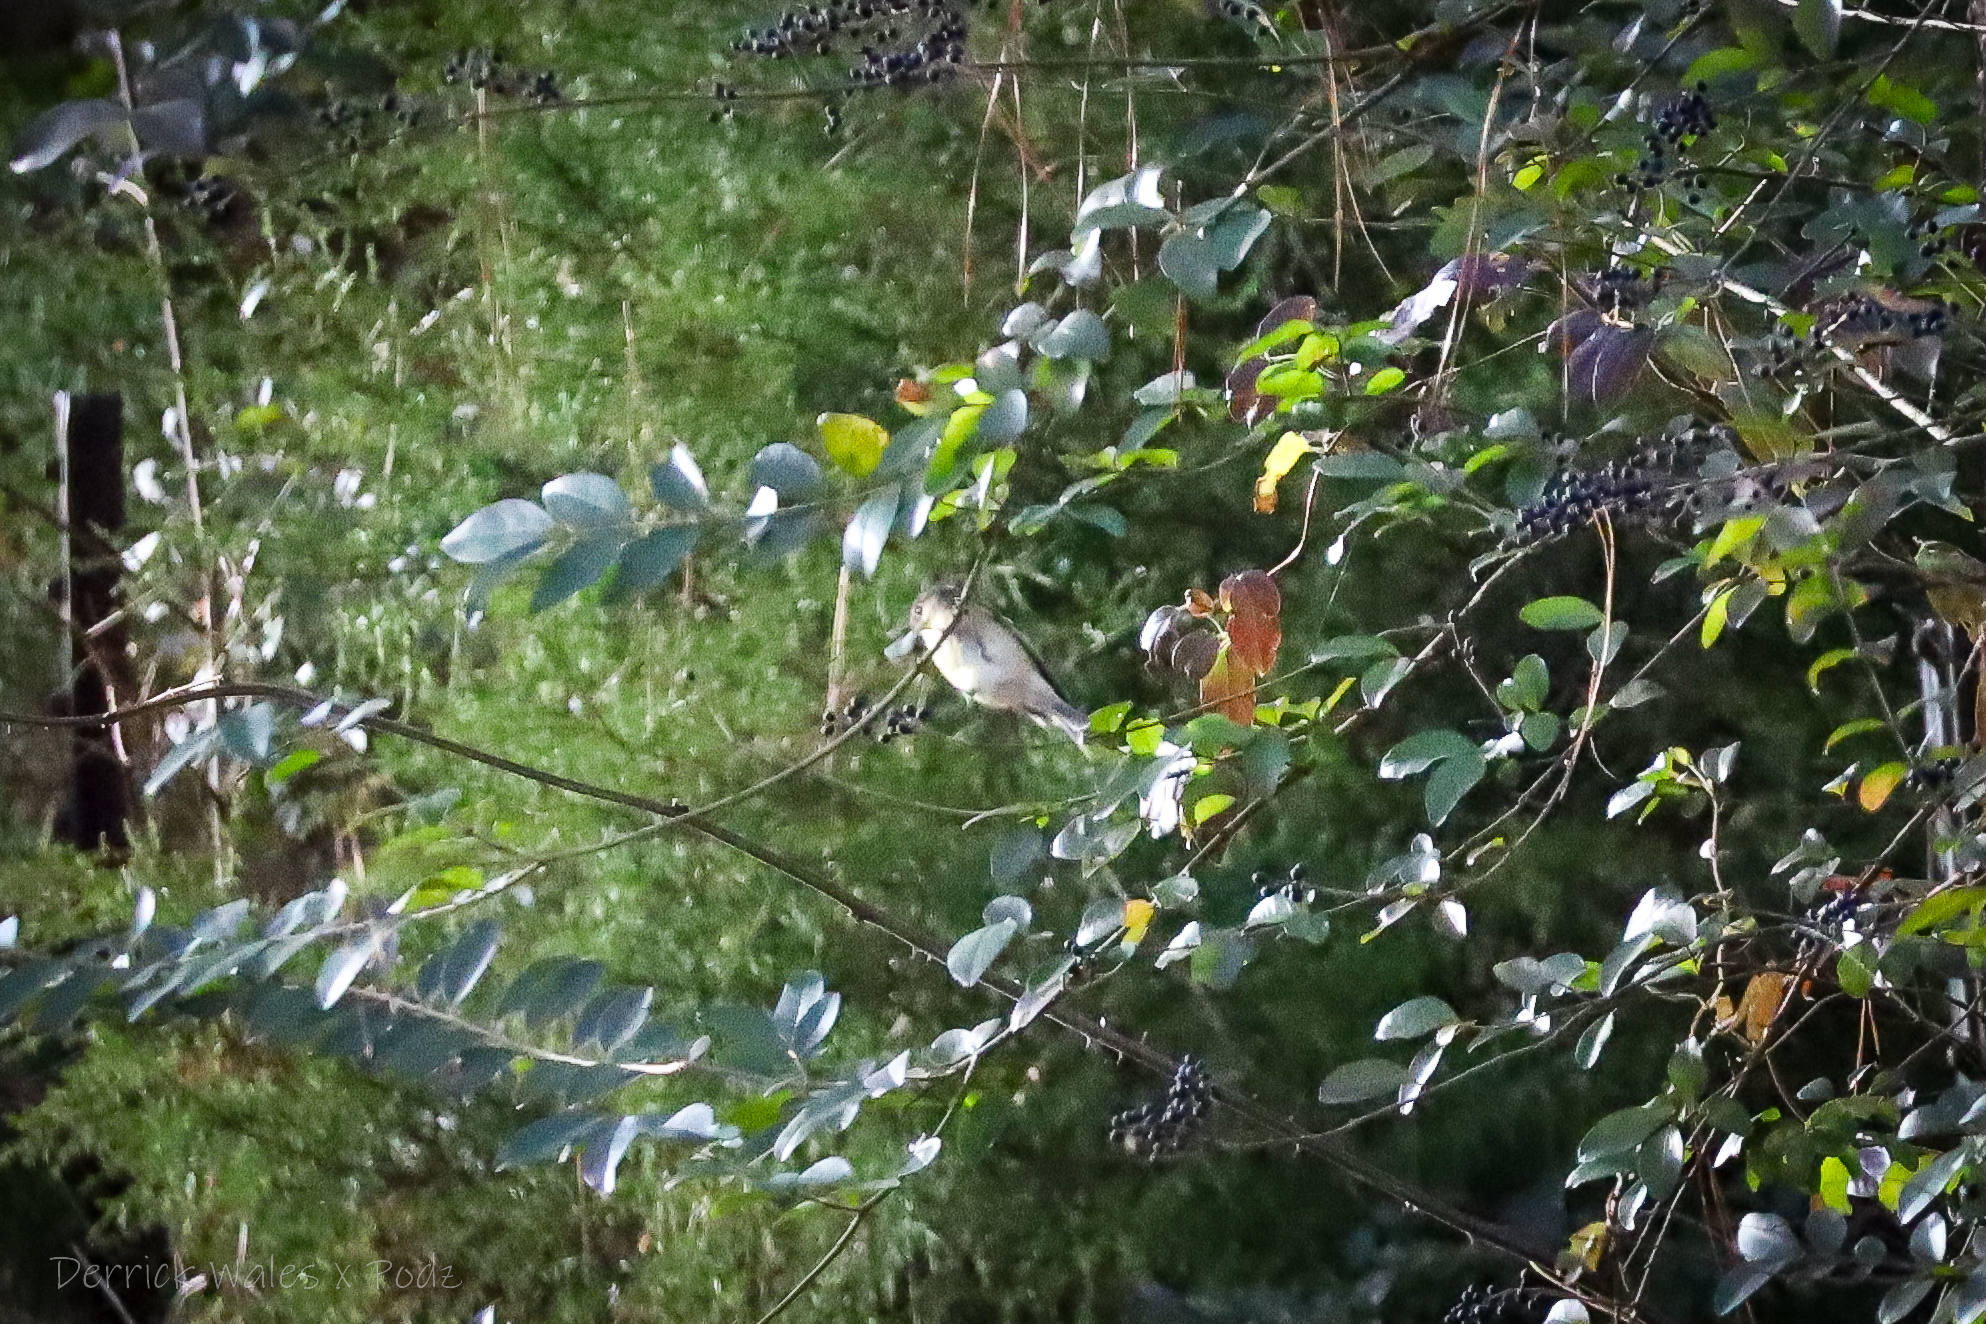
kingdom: Animalia
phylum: Chordata
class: Aves
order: Passeriformes
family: Regulidae
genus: Regulus
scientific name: Regulus calendula
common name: Ruby-crowned kinglet
